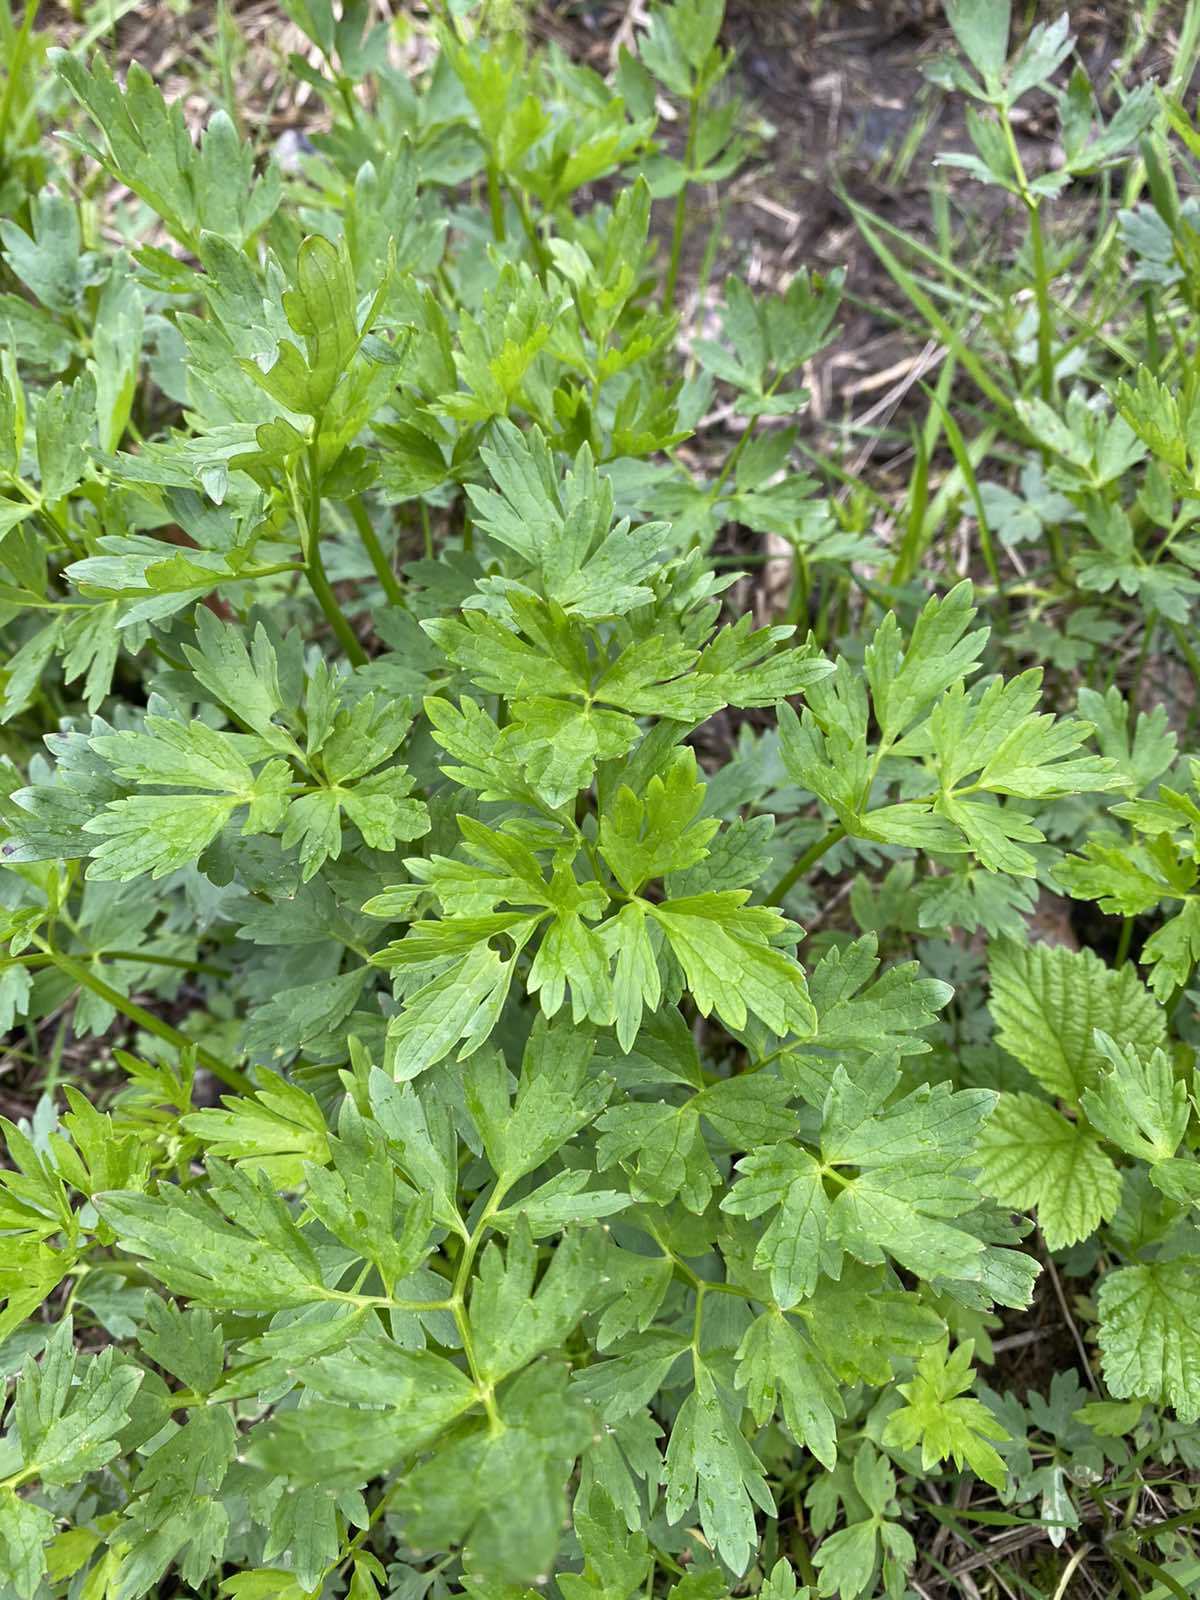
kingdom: Plantae
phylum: Tracheophyta
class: Magnoliopsida
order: Ranunculales
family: Ranunculaceae
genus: Ranunculus
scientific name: Ranunculus repens
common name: Creeping buttercup
